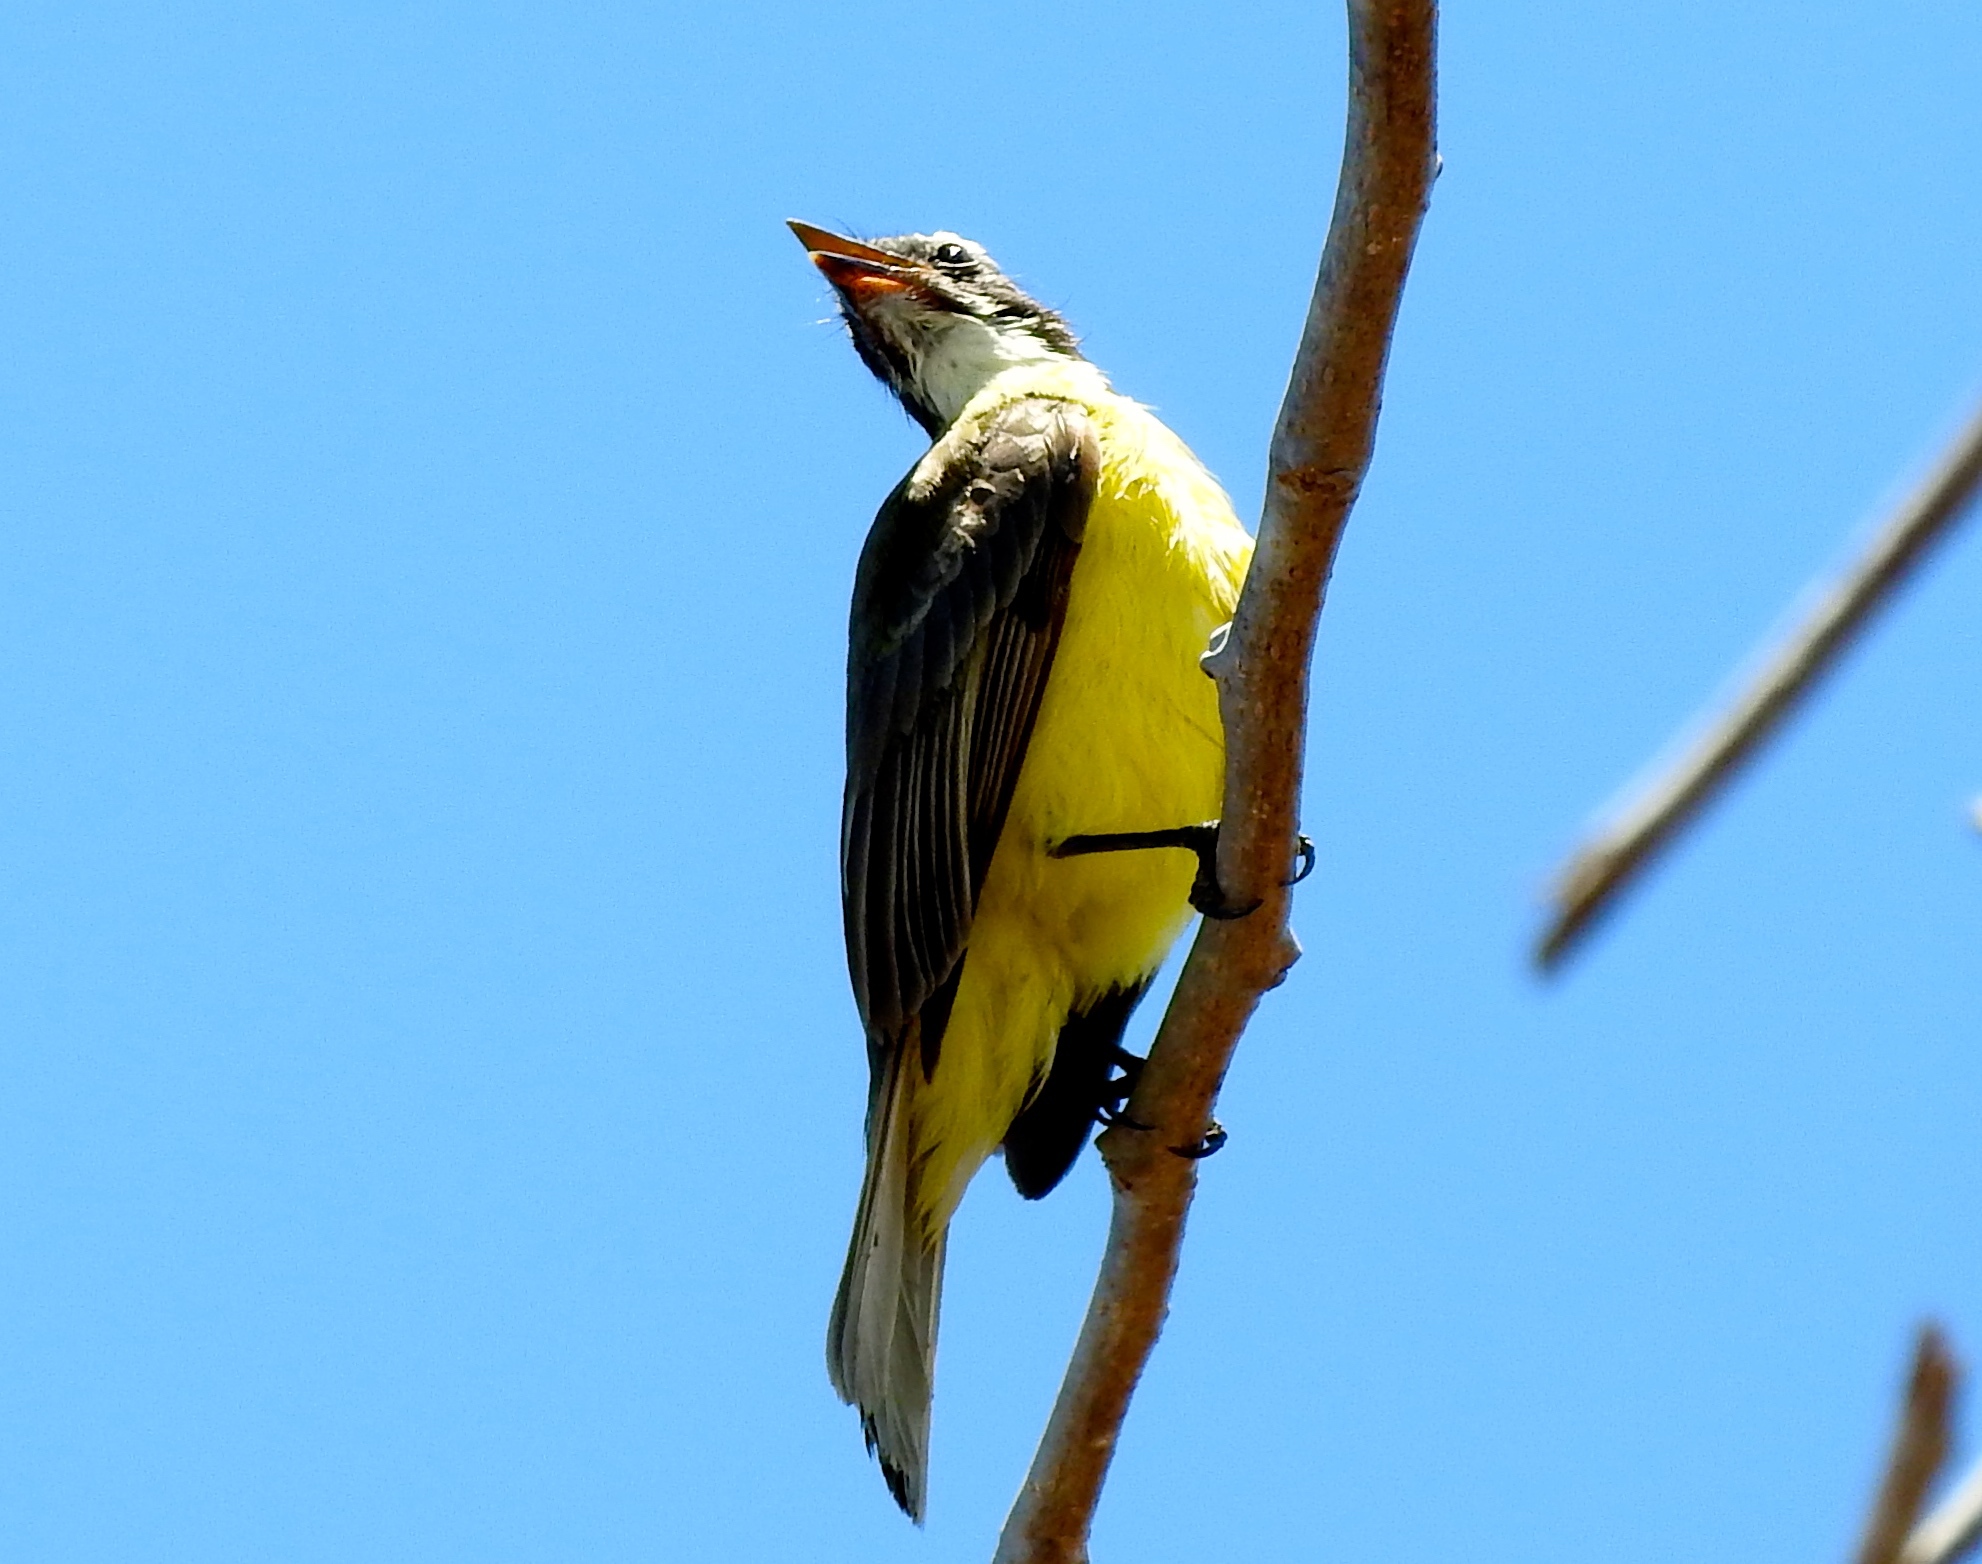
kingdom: Animalia
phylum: Chordata
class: Aves
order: Passeriformes
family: Tyrannidae
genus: Myiozetetes
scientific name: Myiozetetes similis
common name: Social flycatcher
